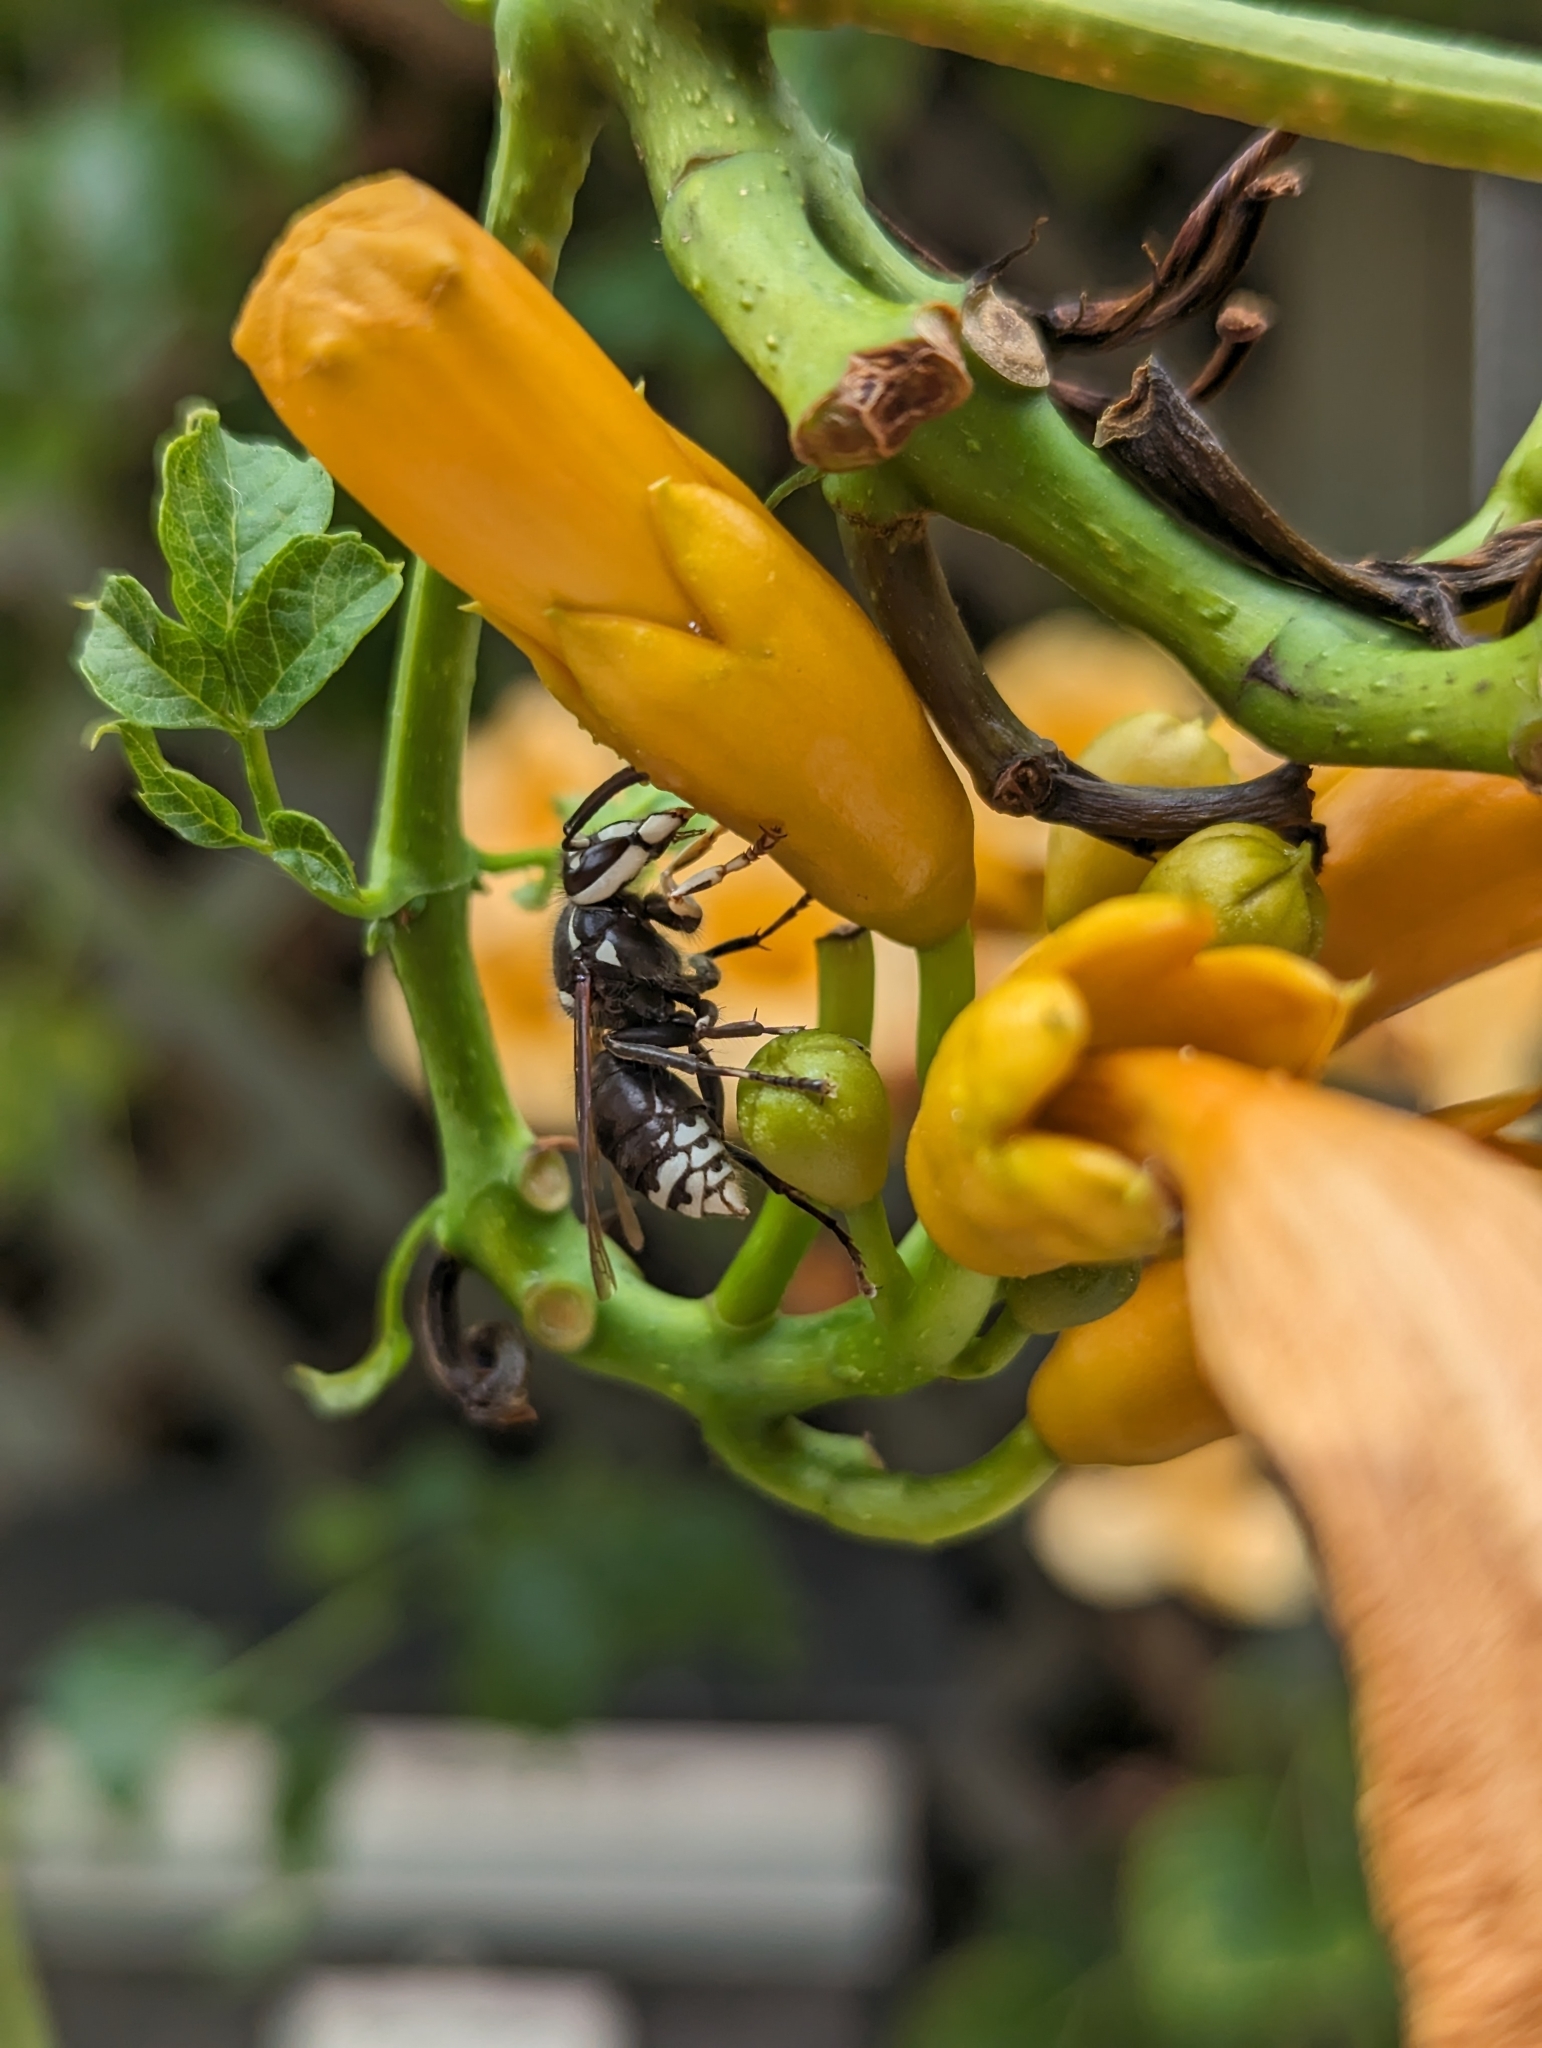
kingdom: Animalia
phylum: Arthropoda
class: Insecta
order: Hymenoptera
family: Vespidae
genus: Dolichovespula
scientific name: Dolichovespula maculata
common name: Bald-faced hornet
